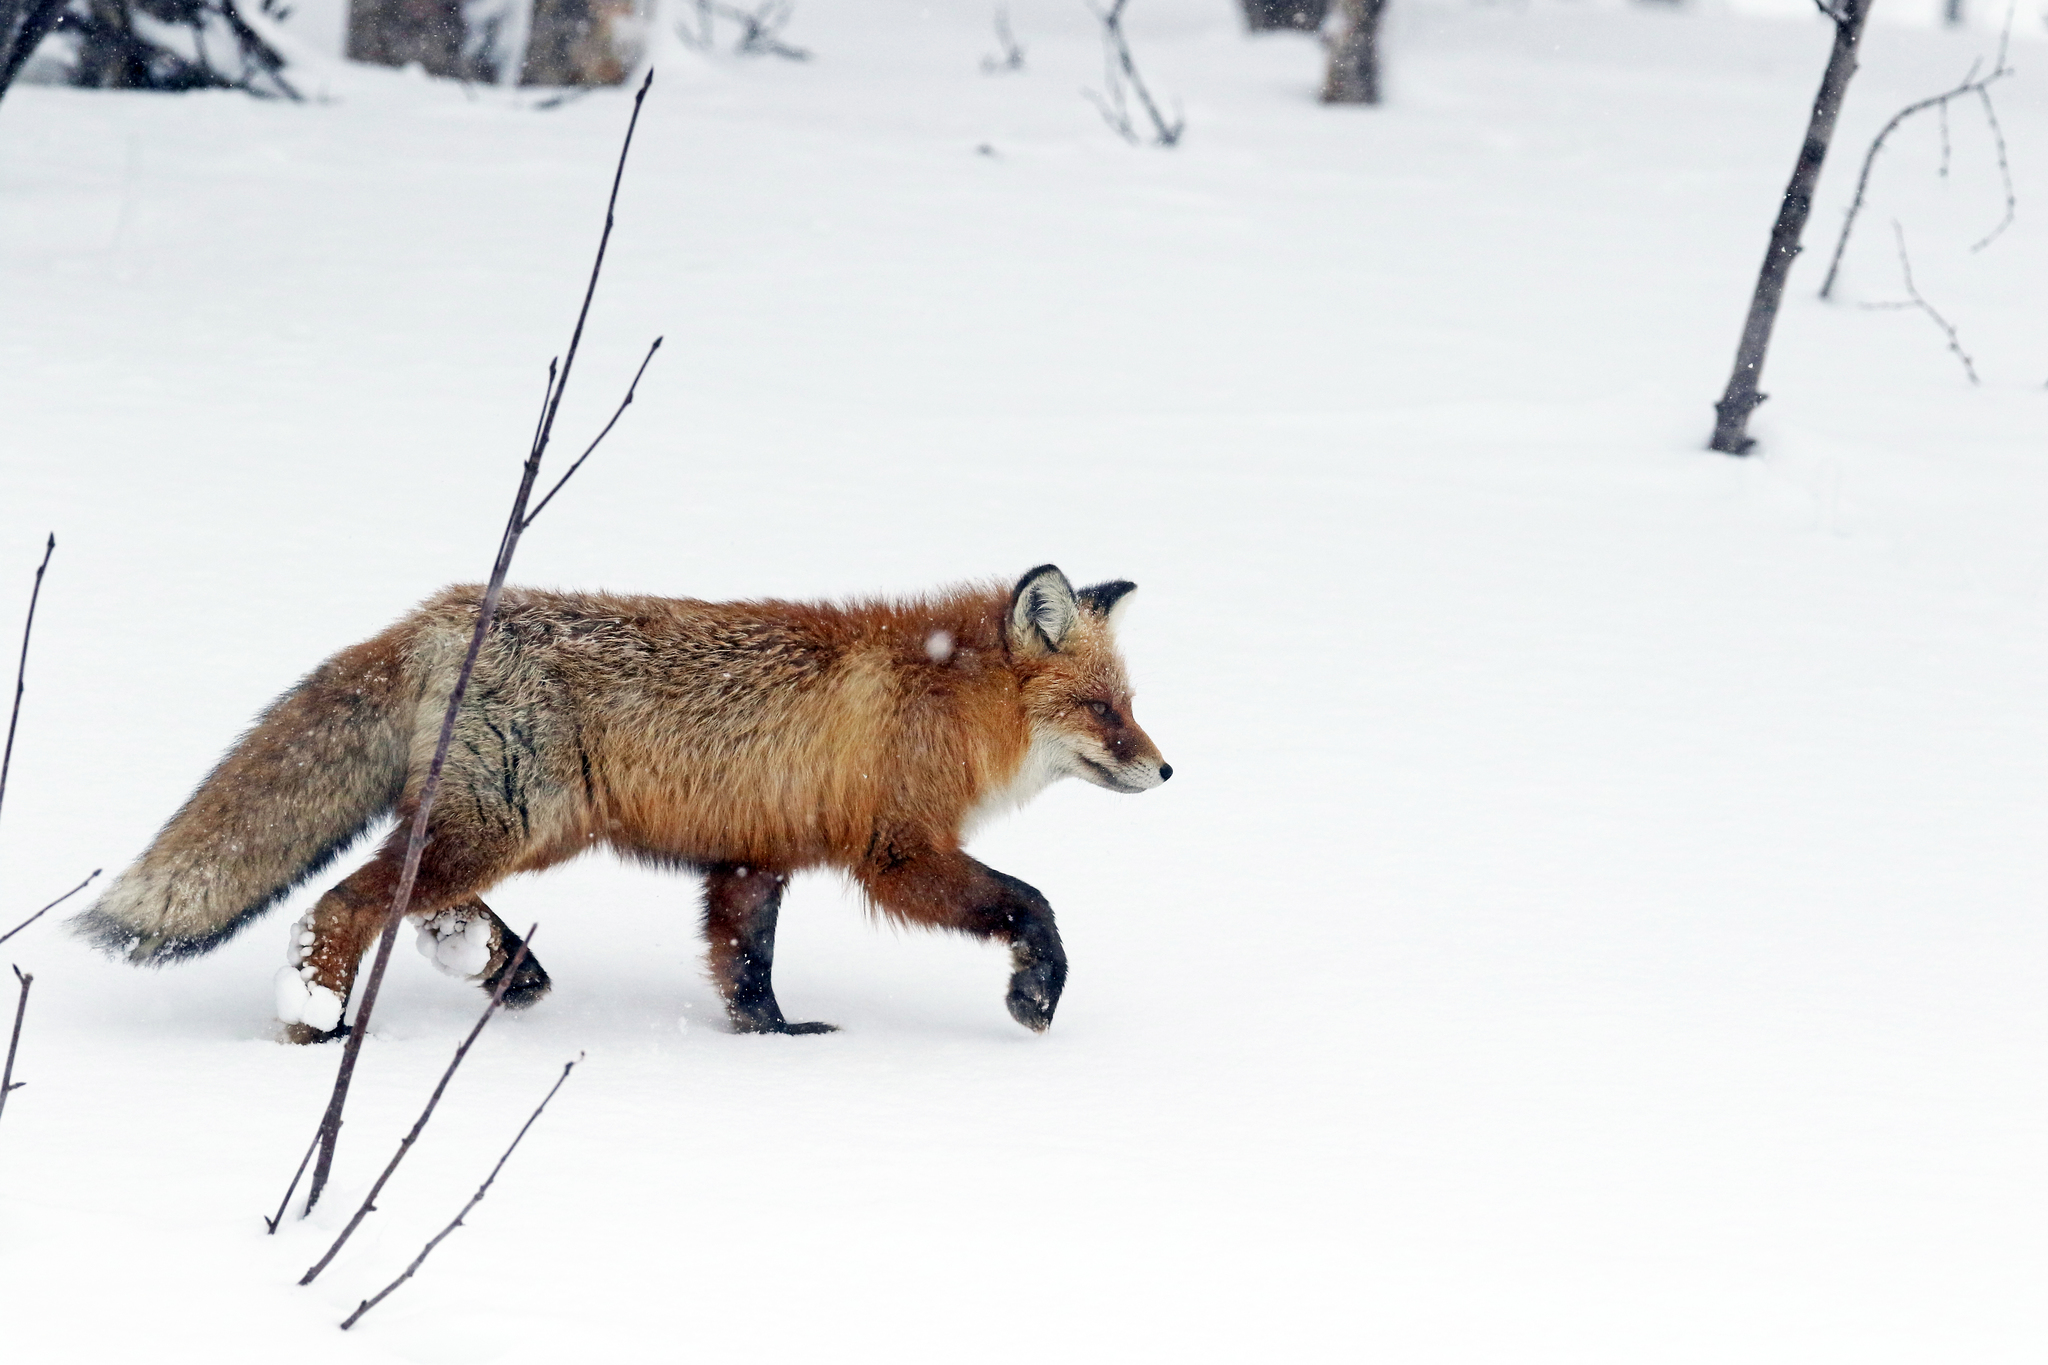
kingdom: Animalia
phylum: Chordata
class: Mammalia
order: Carnivora
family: Canidae
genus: Vulpes
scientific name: Vulpes vulpes
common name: Red fox
